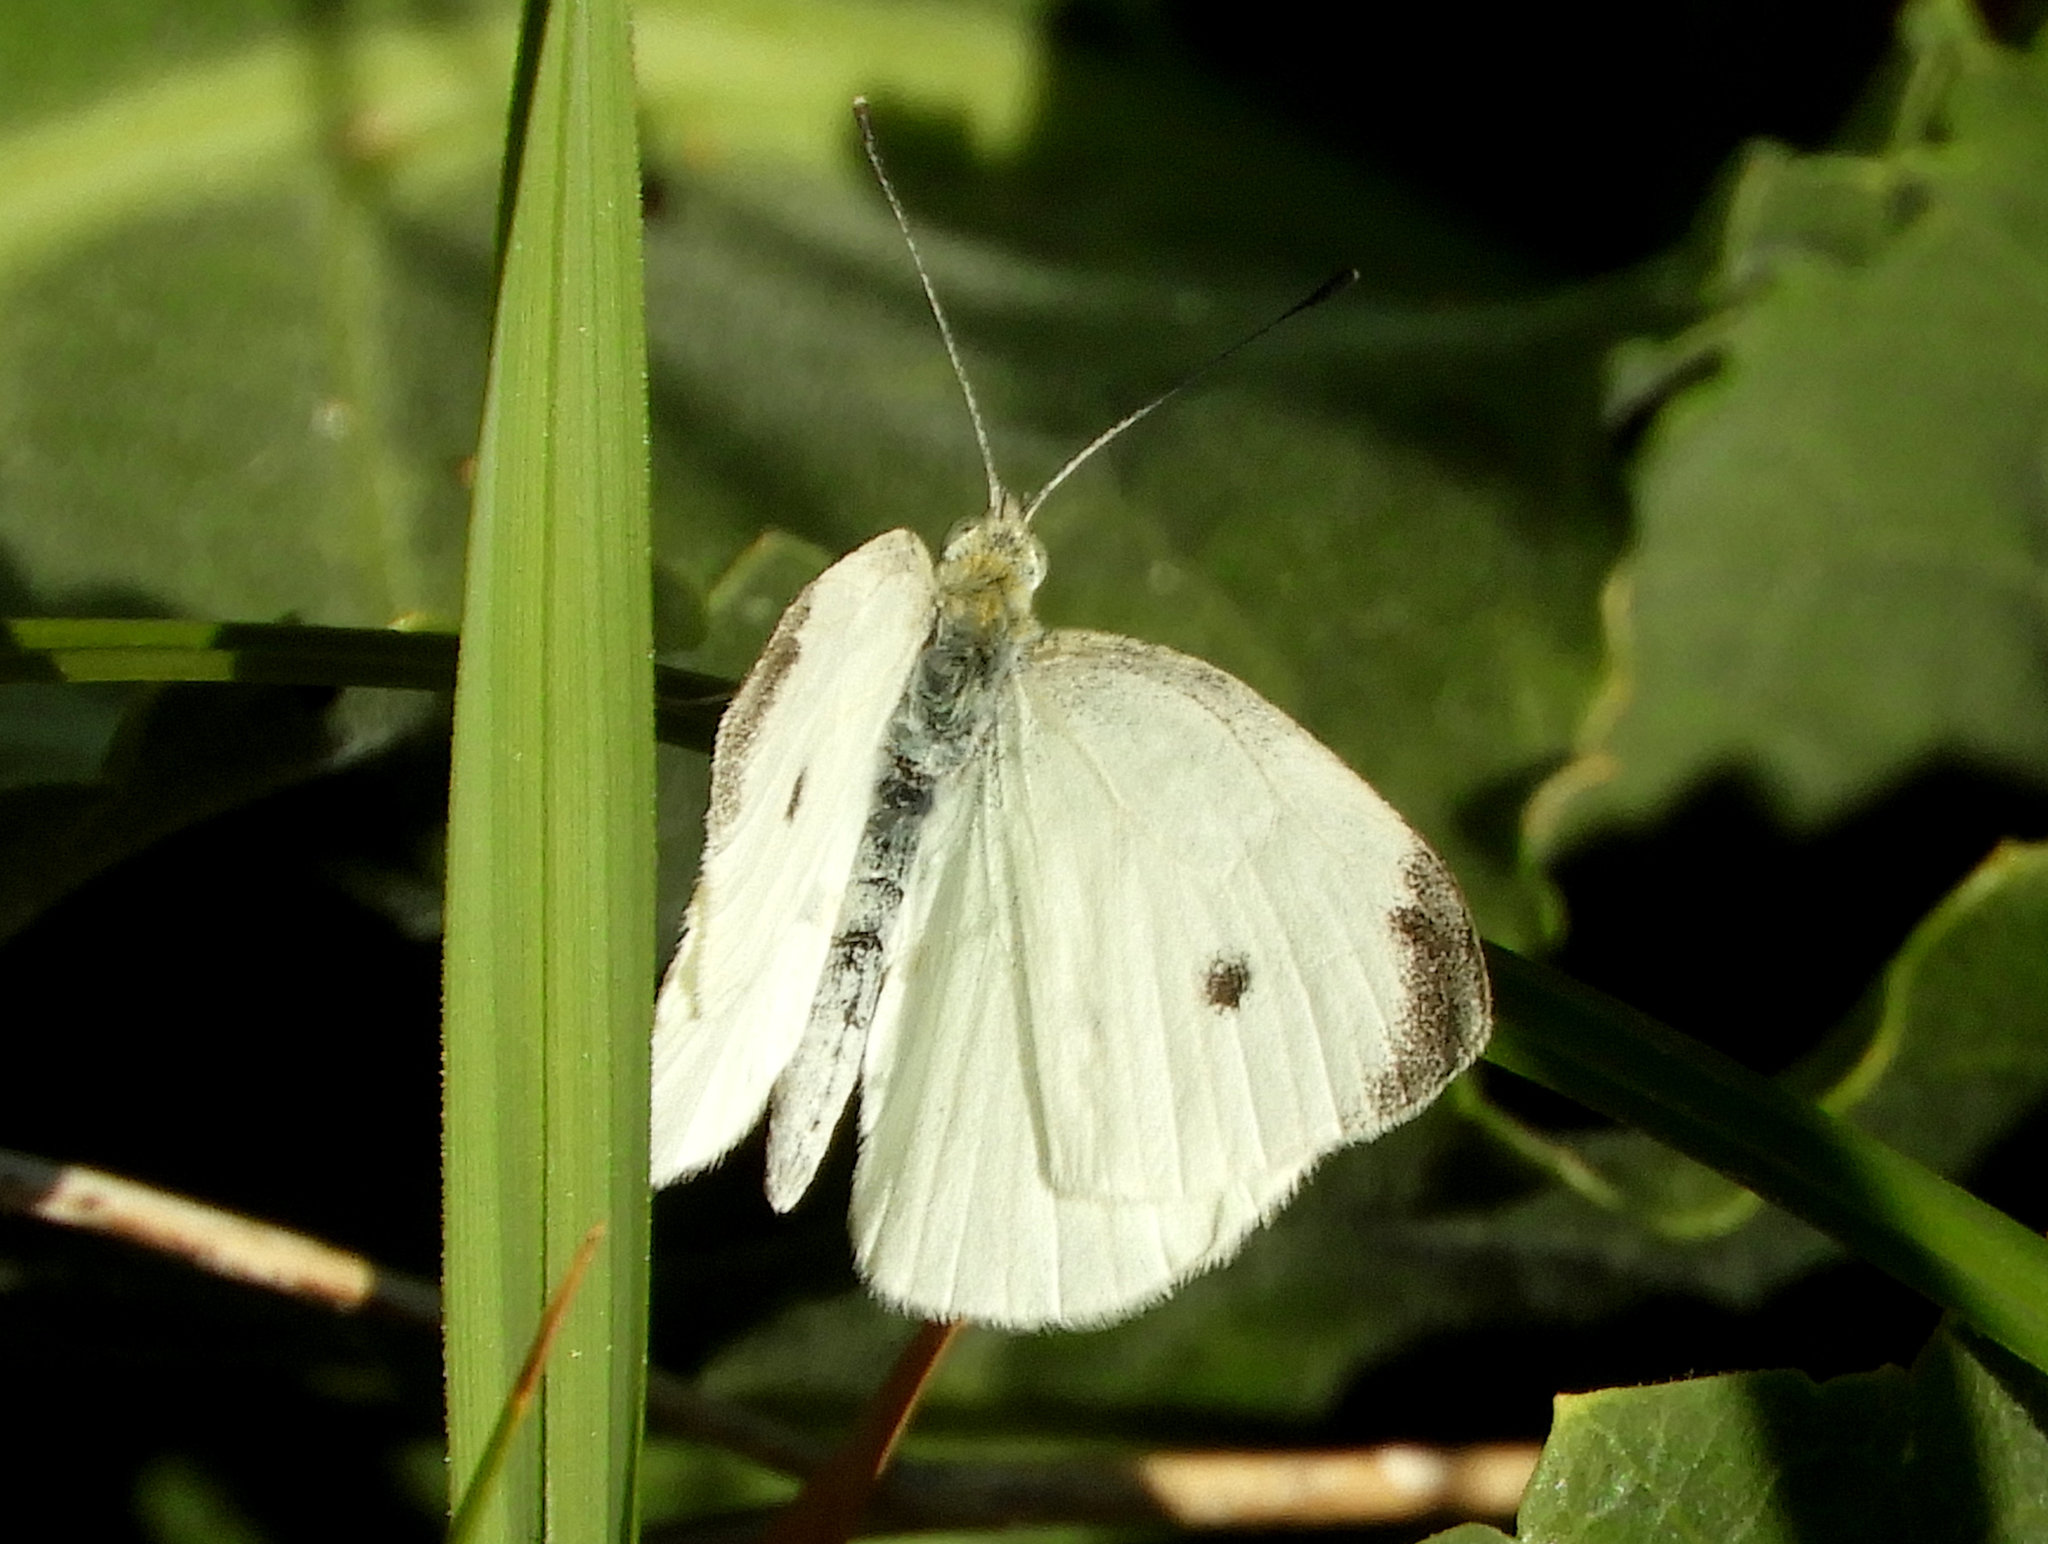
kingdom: Animalia
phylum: Arthropoda
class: Insecta
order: Lepidoptera
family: Pieridae
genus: Pieris
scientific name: Pieris rapae
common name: Small white
